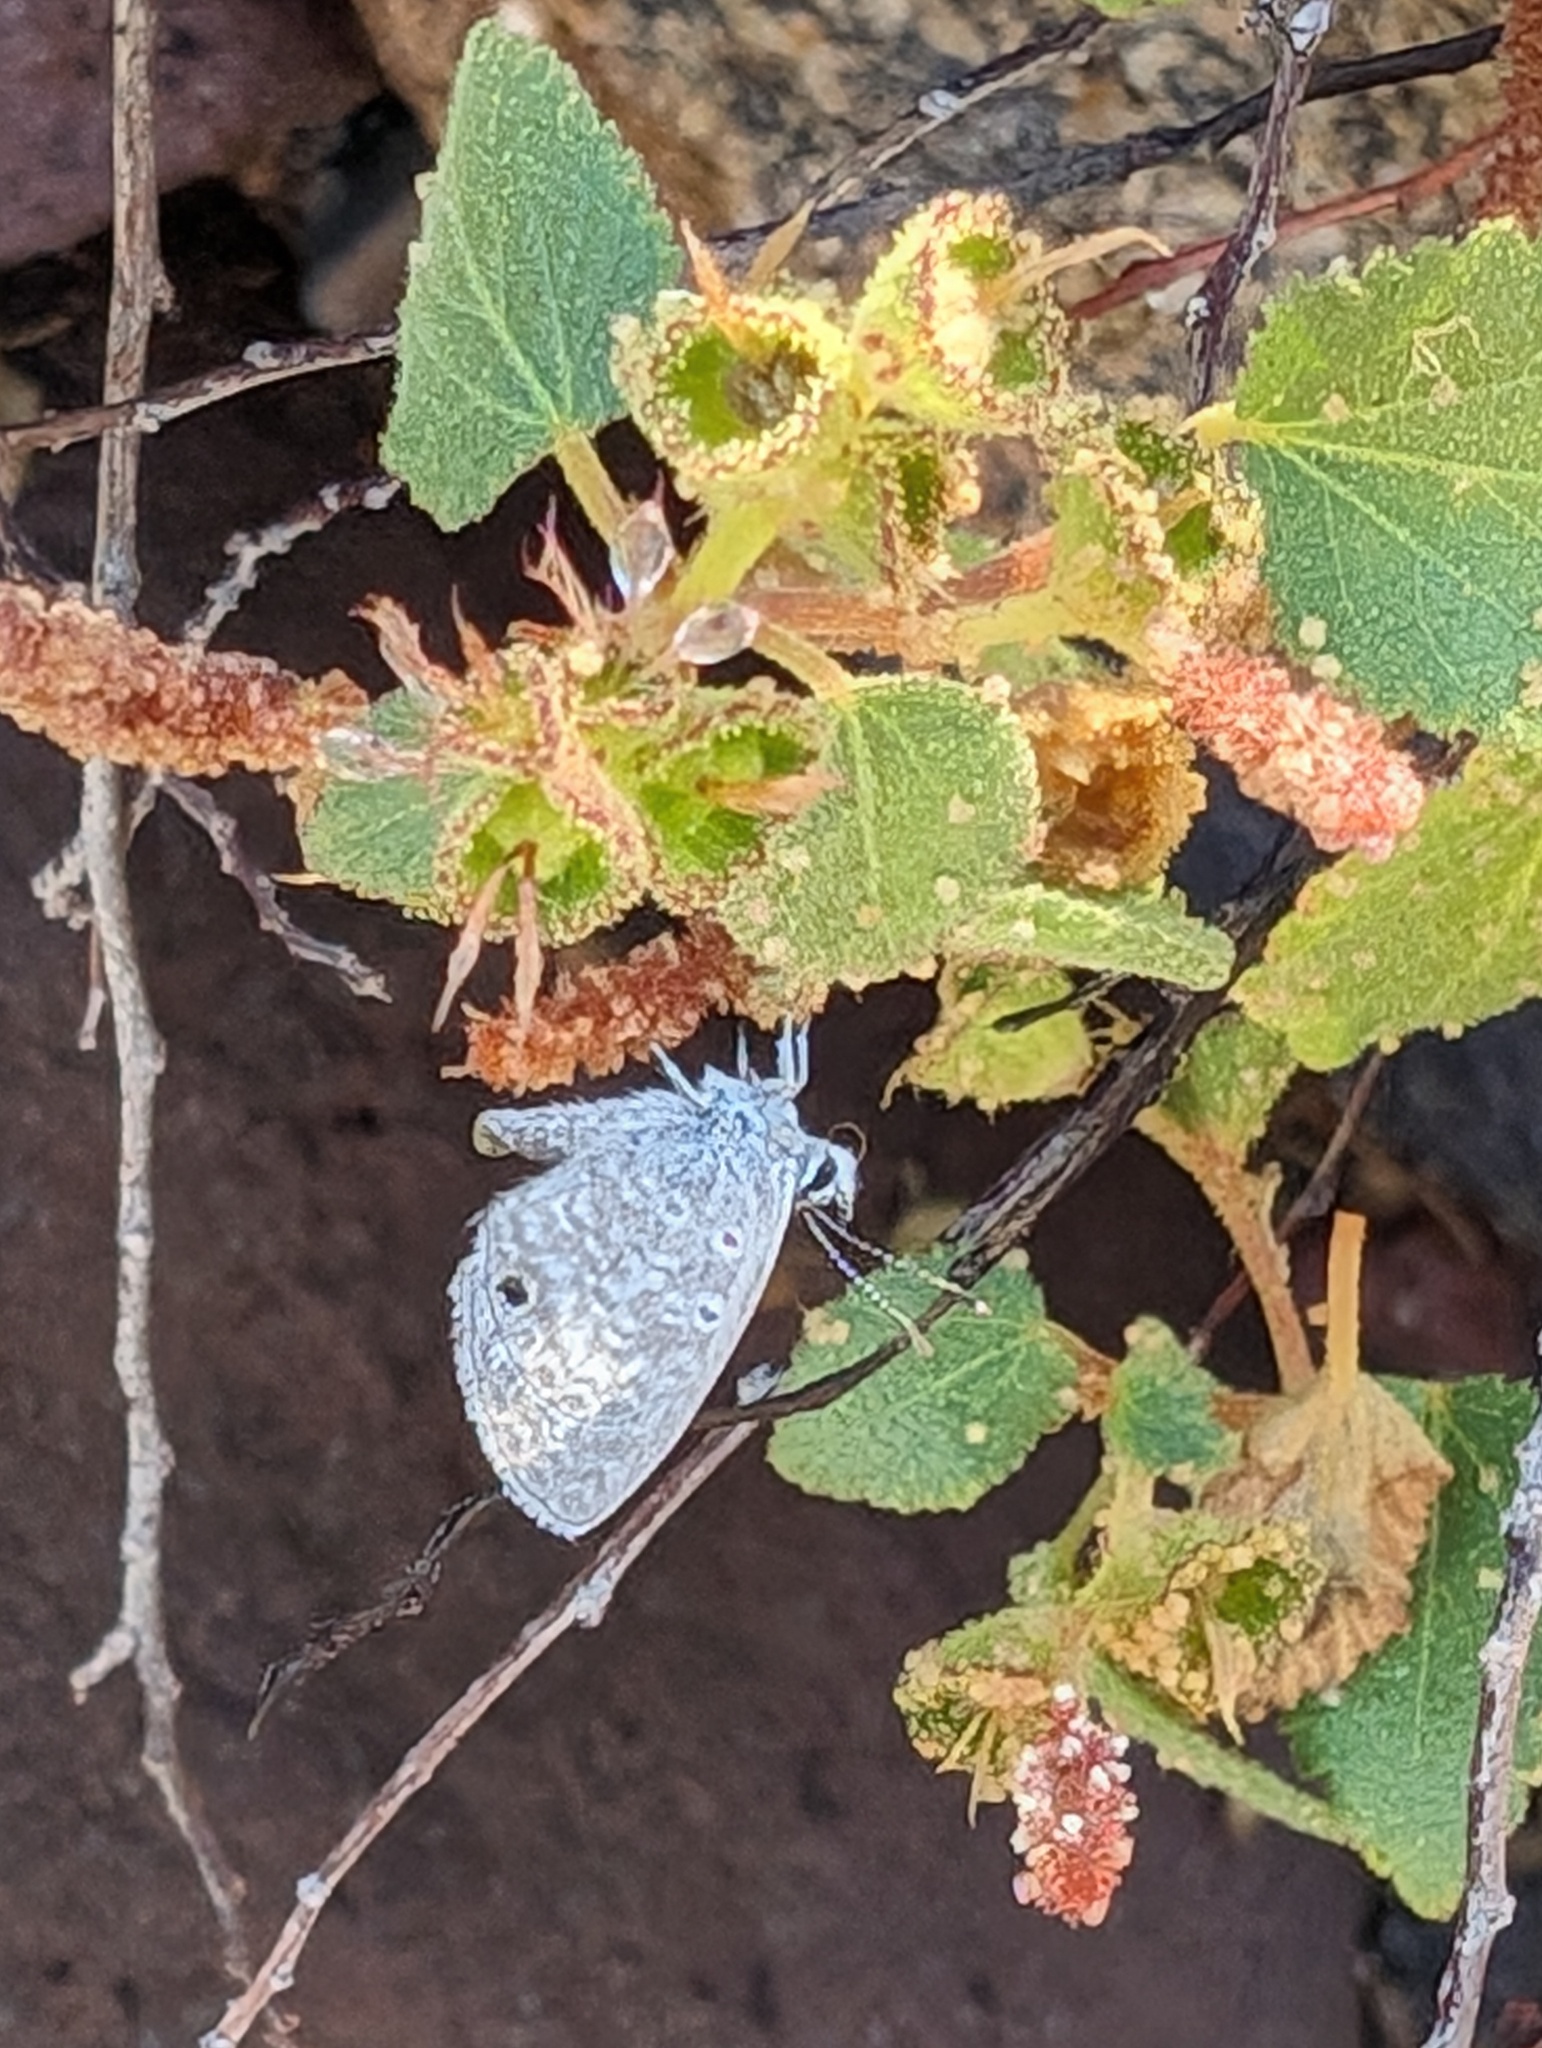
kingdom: Animalia
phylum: Arthropoda
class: Insecta
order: Lepidoptera
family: Lycaenidae
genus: Echinargus
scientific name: Echinargus isola
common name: Reakirt's blue
